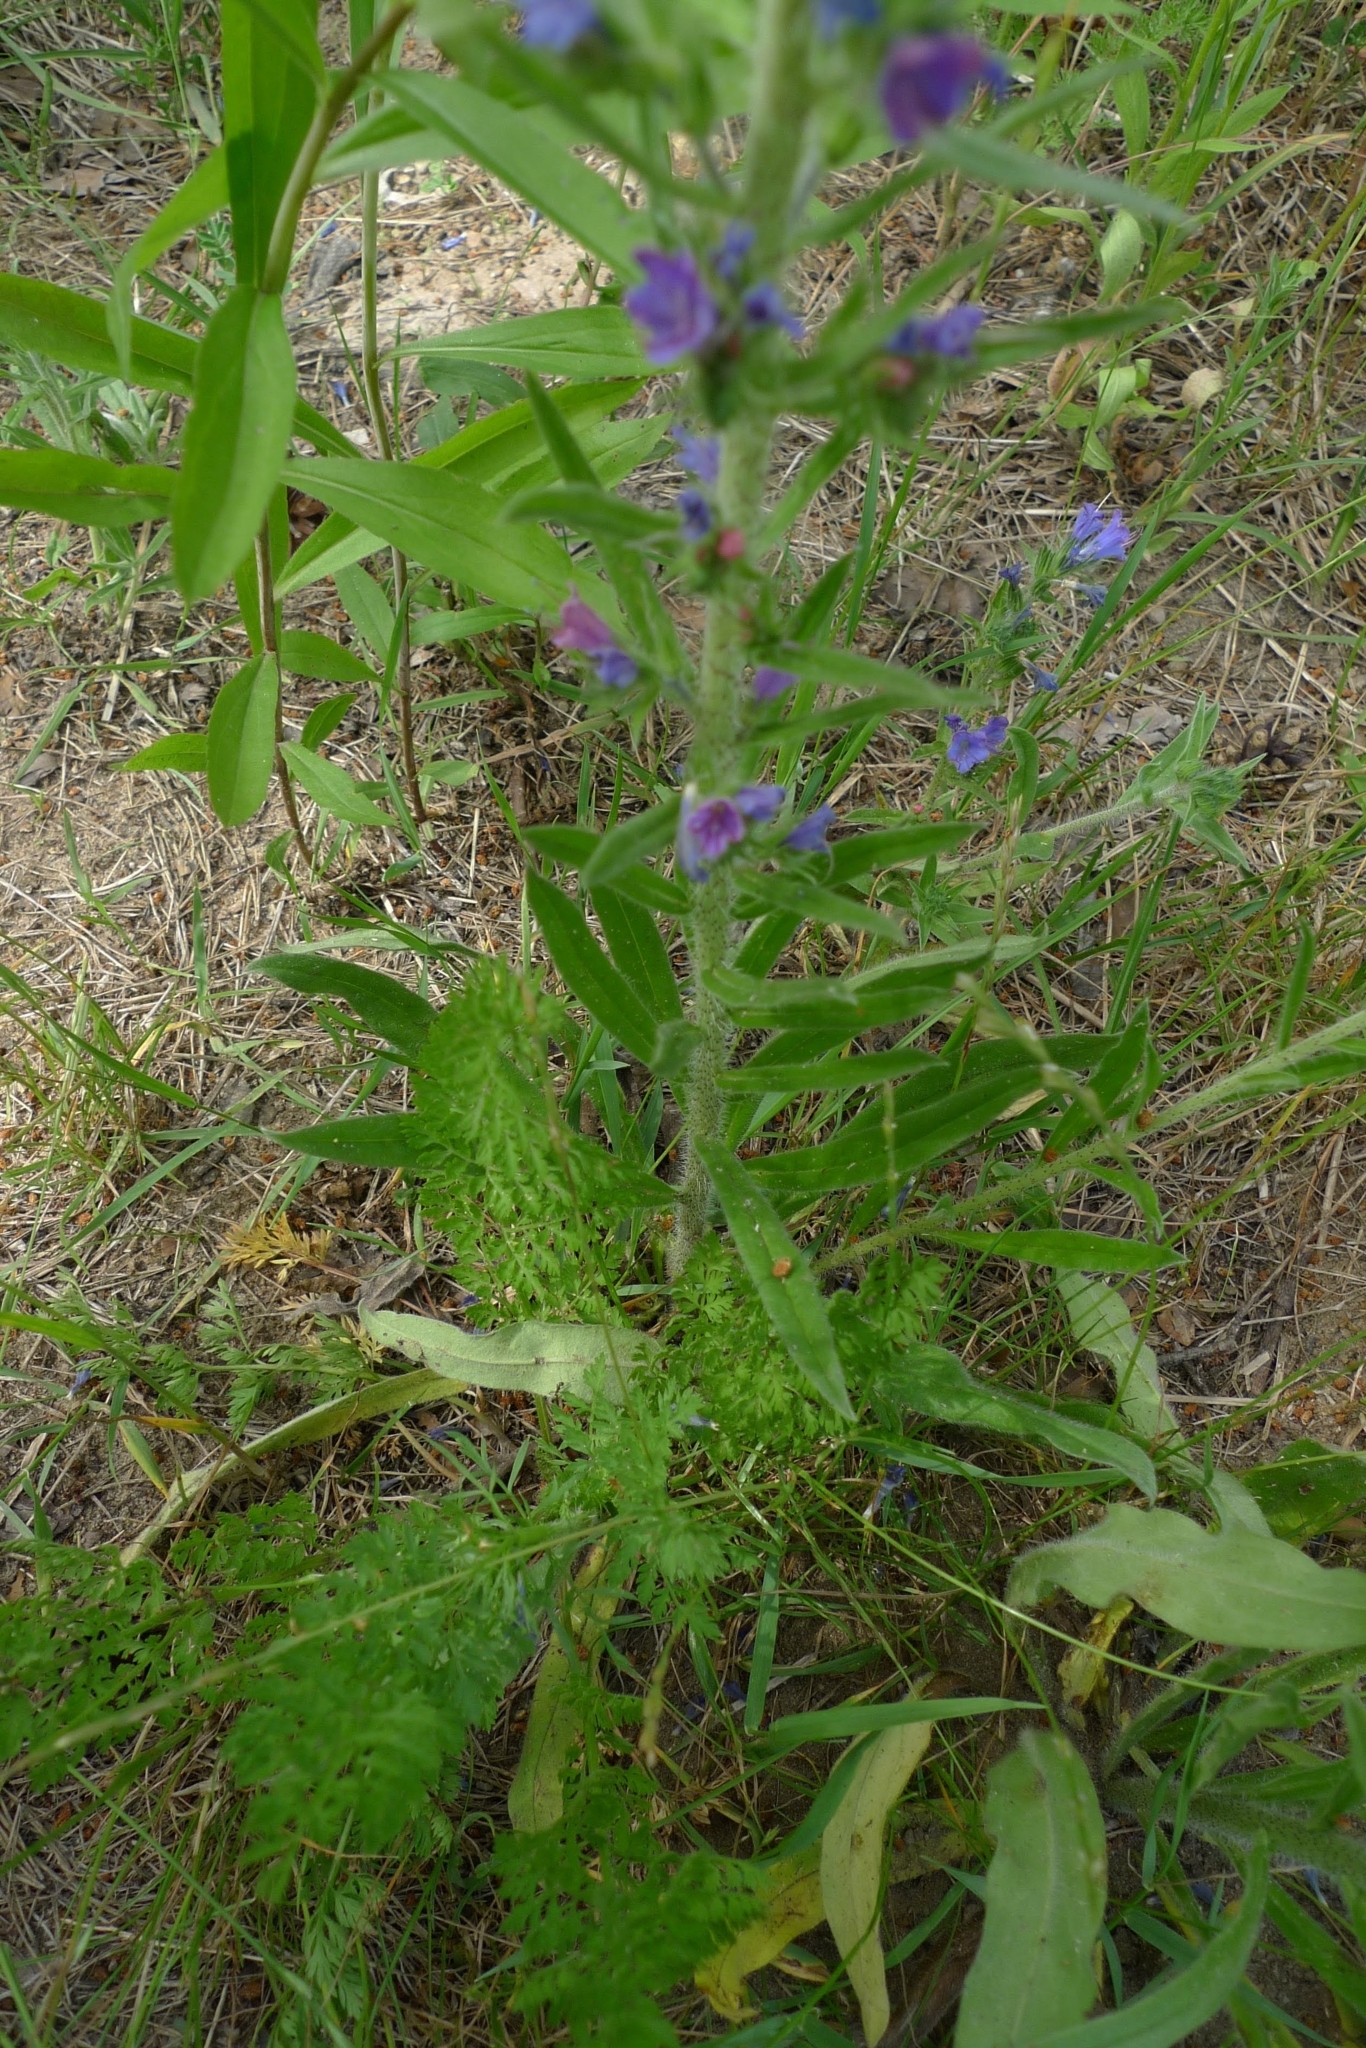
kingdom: Plantae
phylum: Tracheophyta
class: Magnoliopsida
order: Boraginales
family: Boraginaceae
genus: Echium
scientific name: Echium vulgare
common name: Common viper's bugloss
